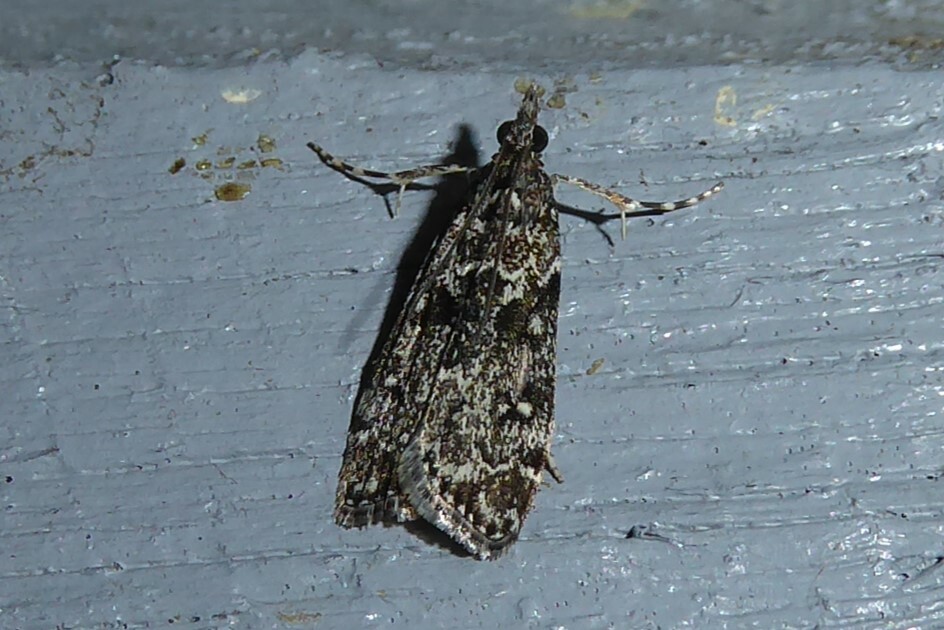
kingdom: Animalia
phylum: Arthropoda
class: Insecta
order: Lepidoptera
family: Crambidae
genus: Eudonia
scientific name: Eudonia philerga
